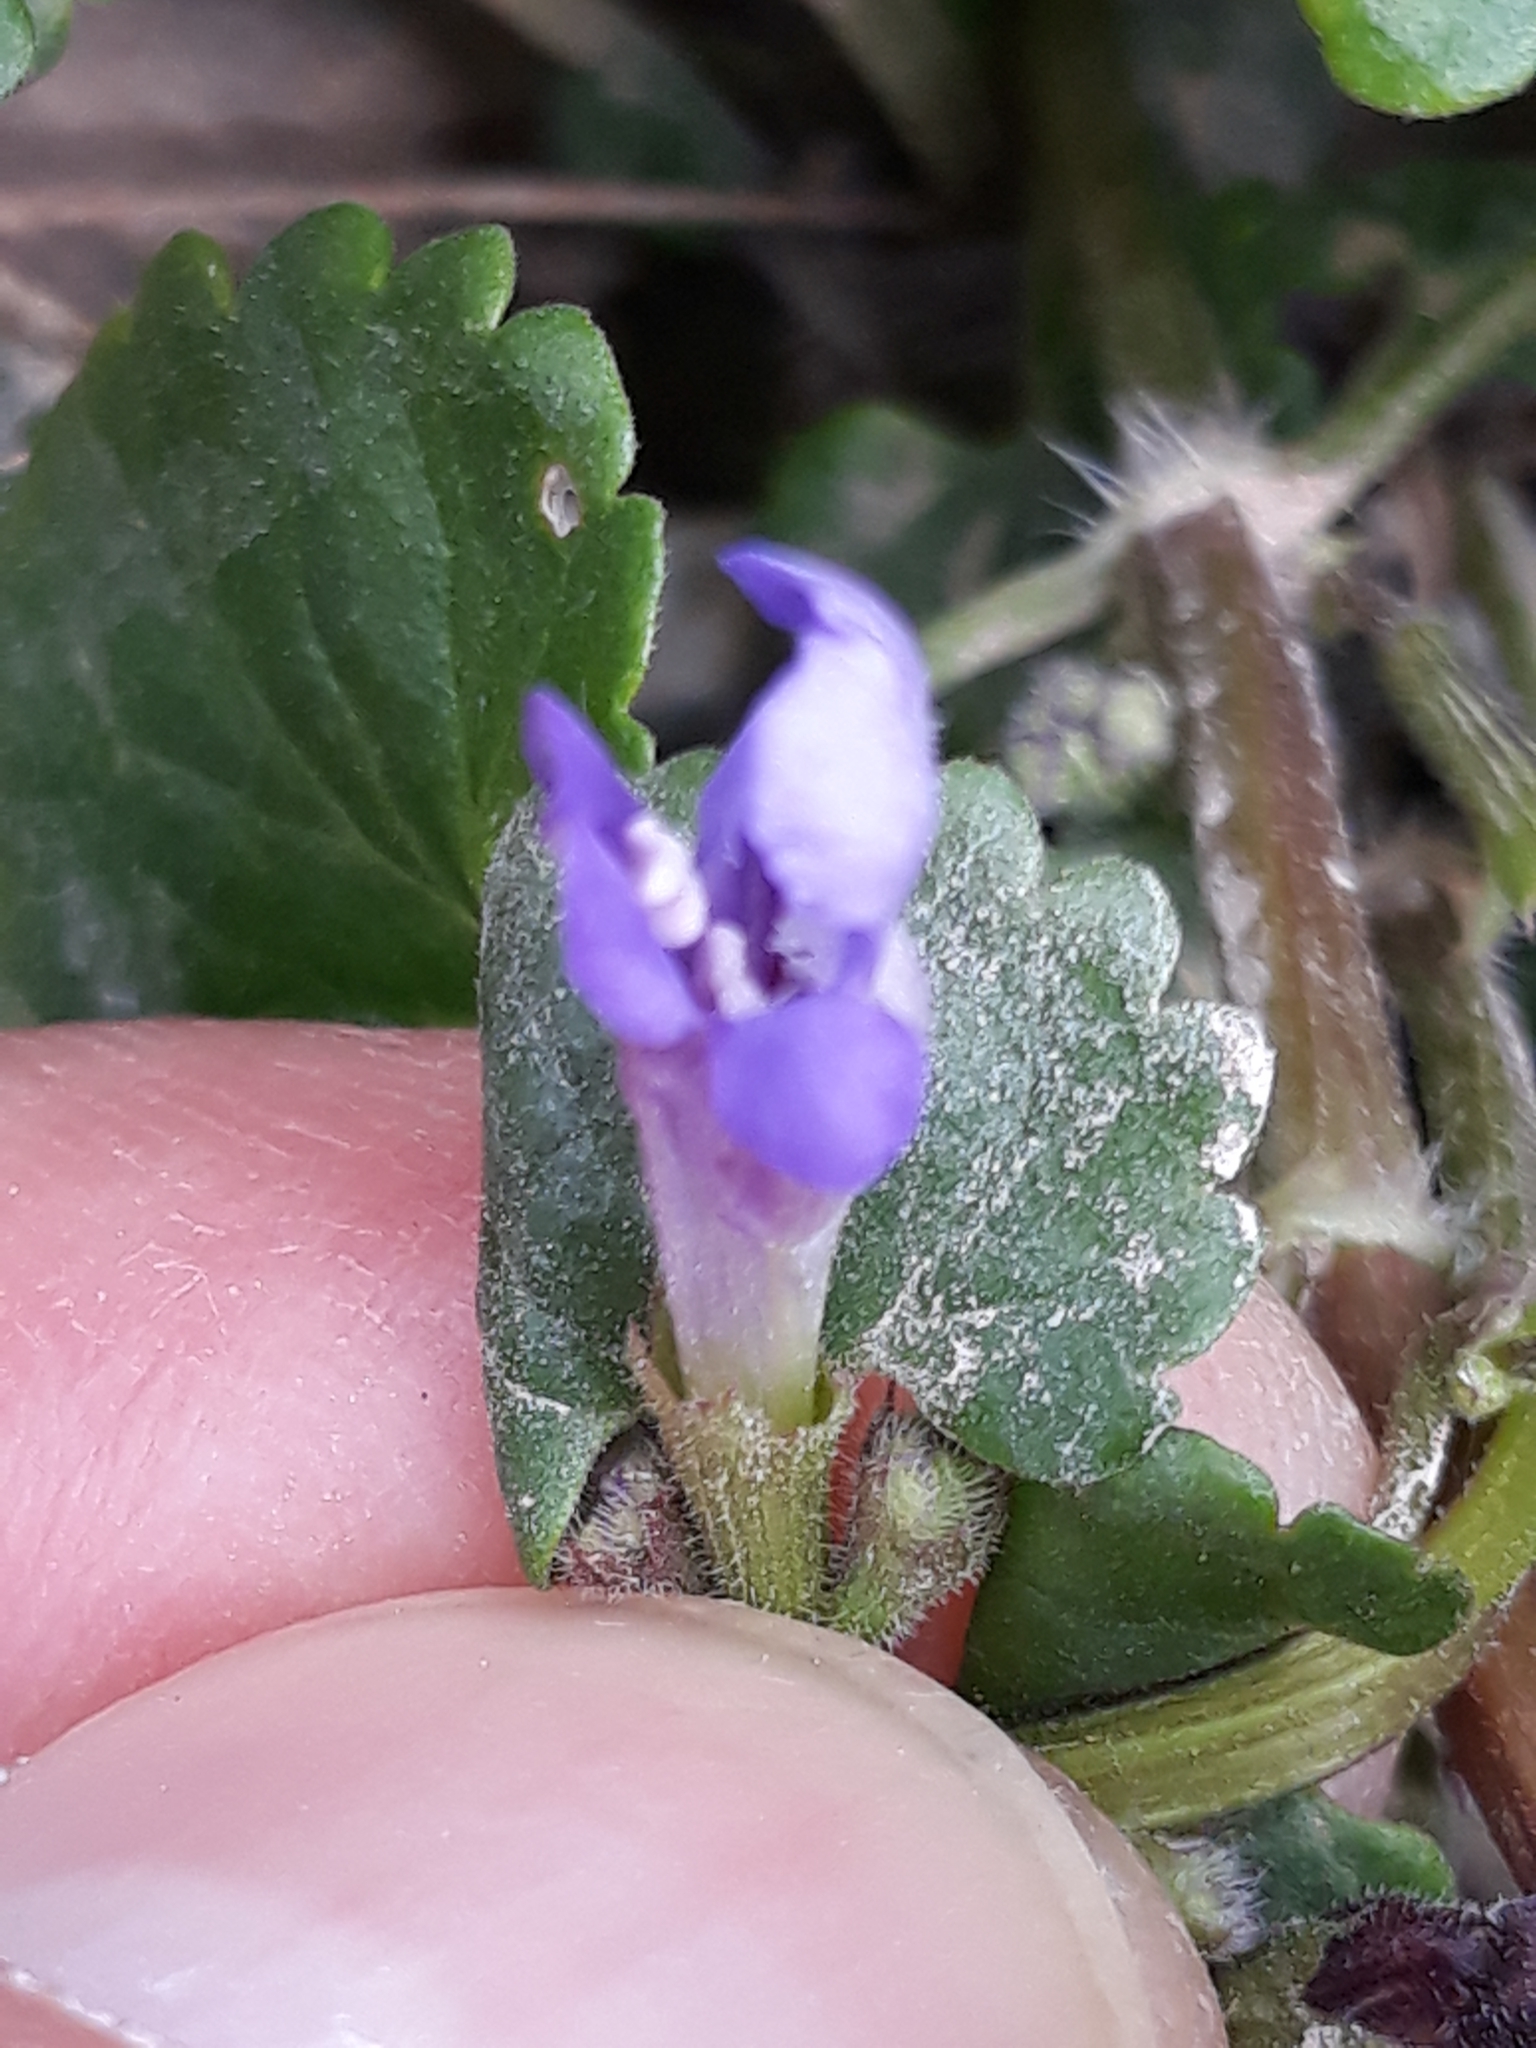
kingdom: Plantae
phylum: Tracheophyta
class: Magnoliopsida
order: Lamiales
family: Lamiaceae
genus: Glechoma
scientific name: Glechoma hederacea
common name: Ground ivy
